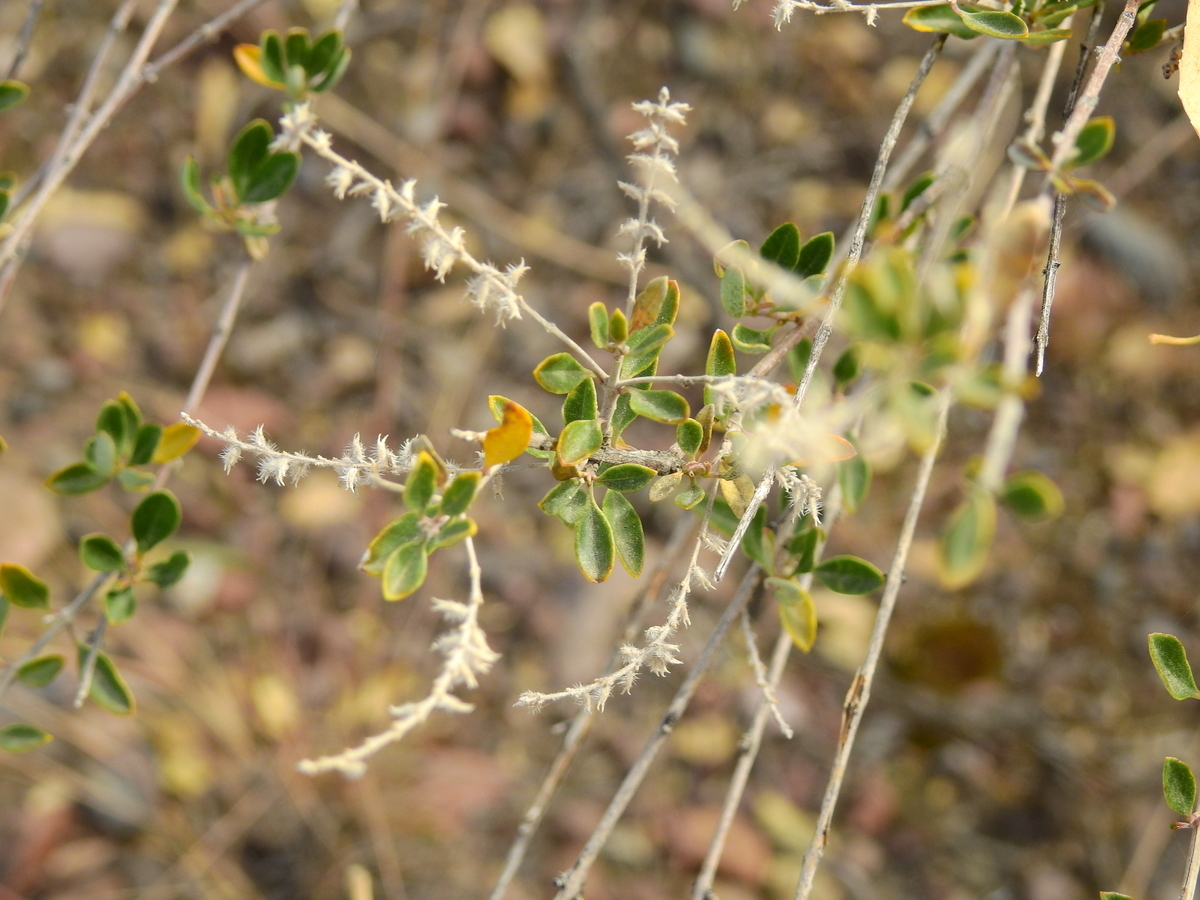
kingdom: Plantae
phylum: Tracheophyta
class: Magnoliopsida
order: Lamiales
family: Verbenaceae
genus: Aloysia
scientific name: Aloysia gratissima
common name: Common bee-brush
